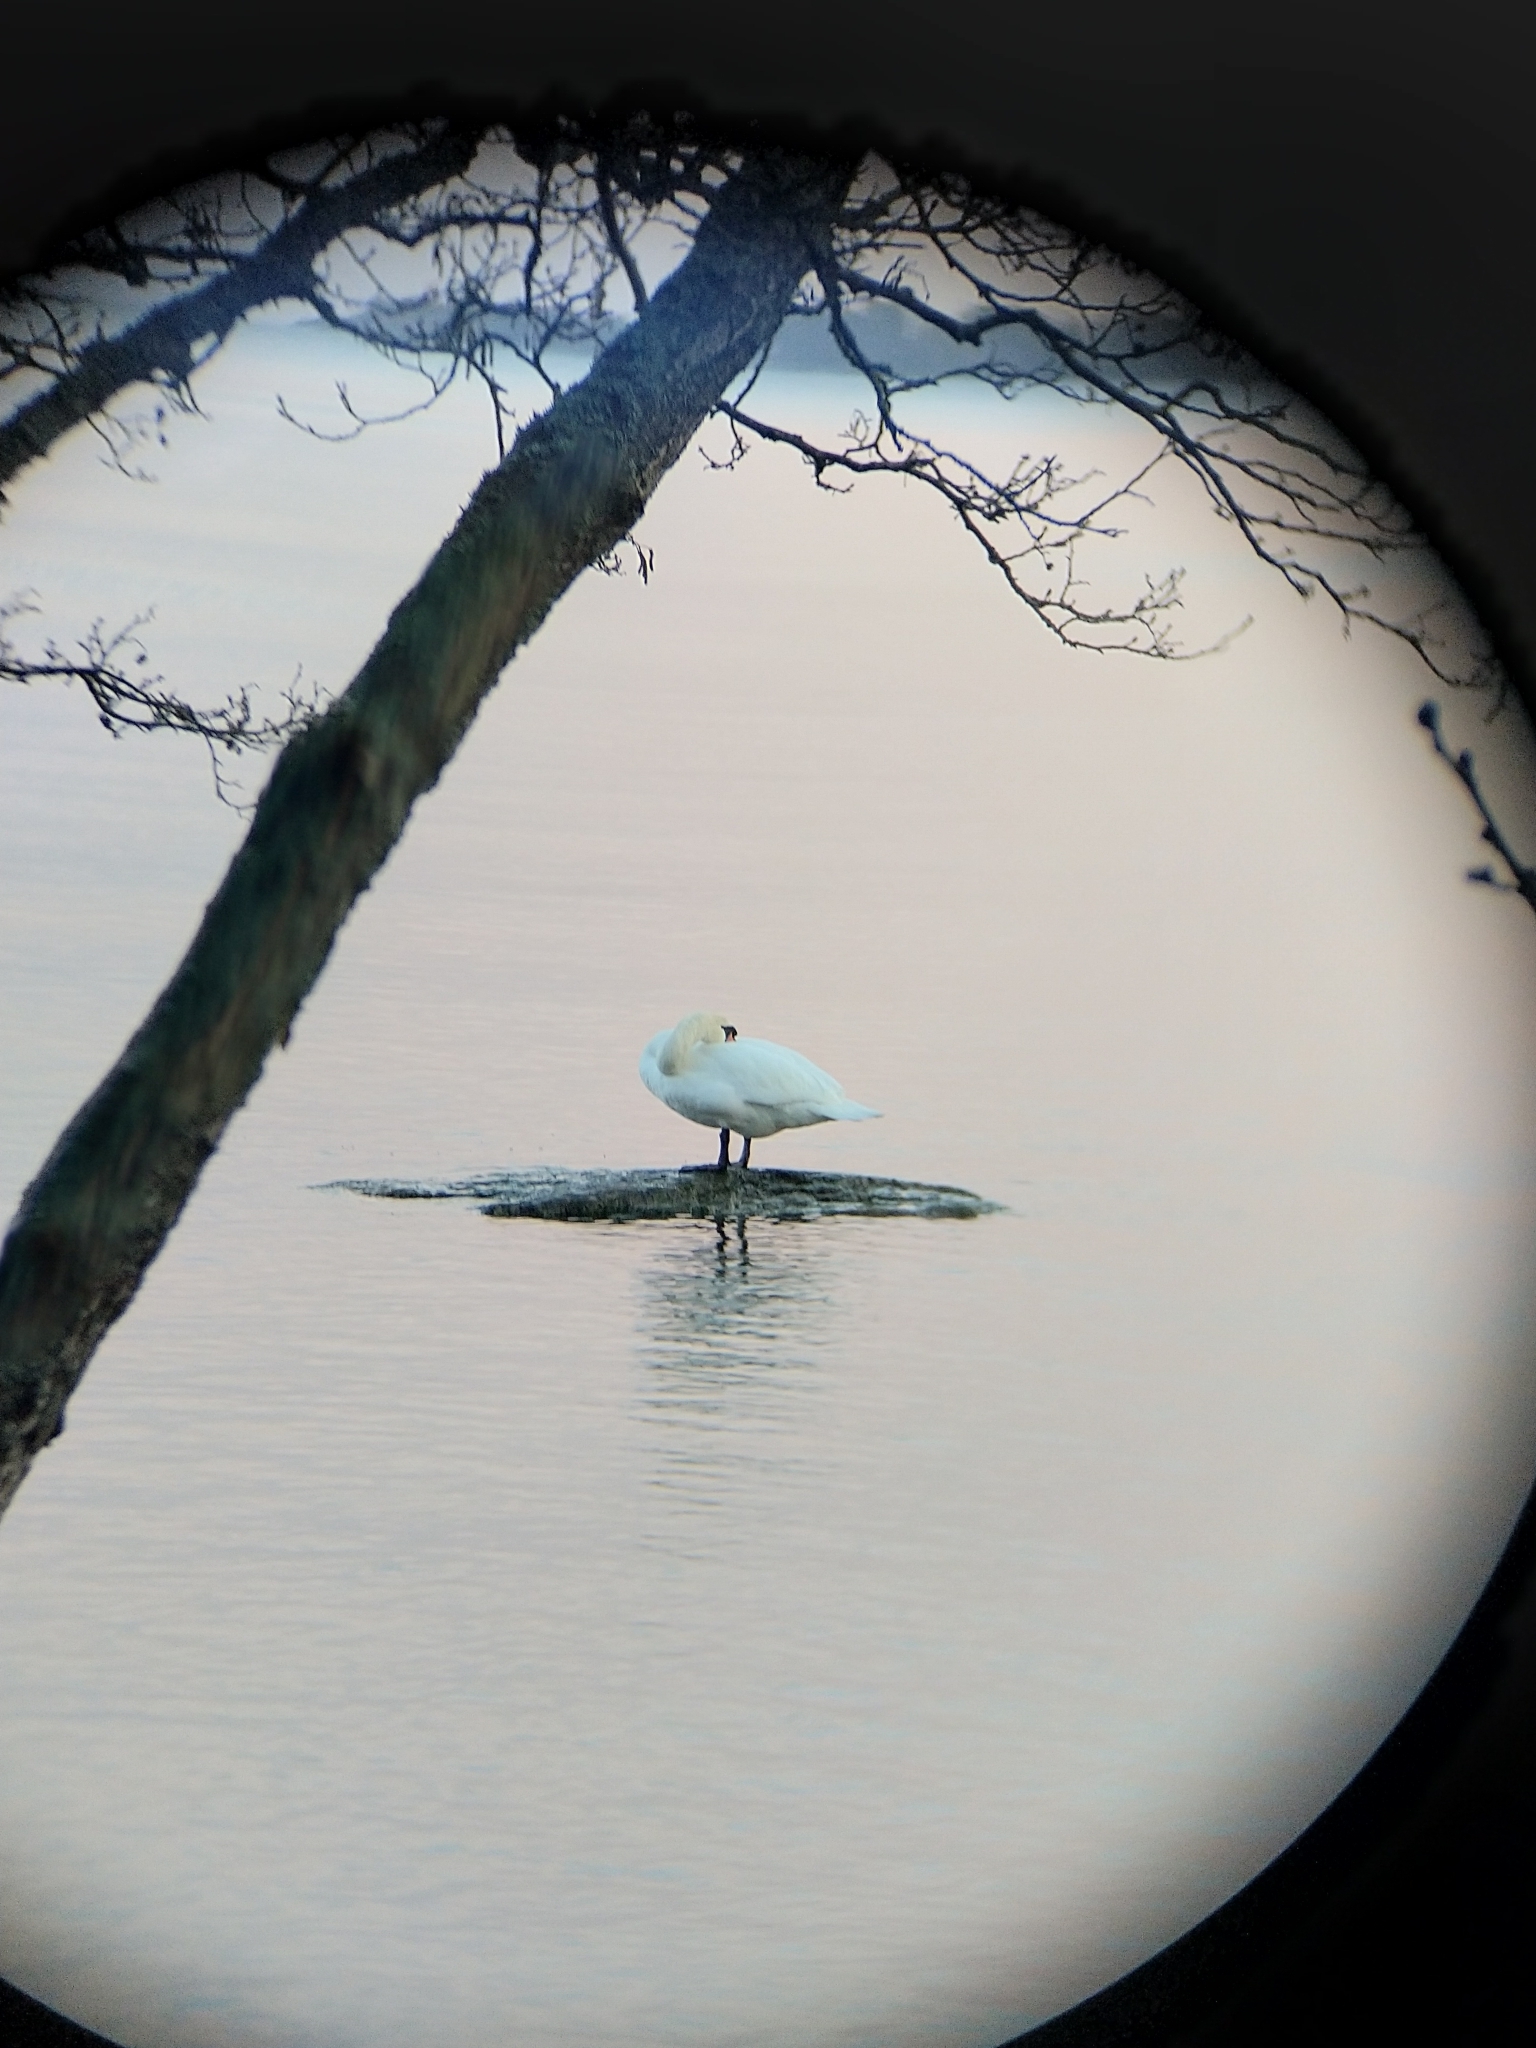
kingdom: Animalia
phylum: Chordata
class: Aves
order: Anseriformes
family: Anatidae
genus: Cygnus
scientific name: Cygnus olor
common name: Mute swan
